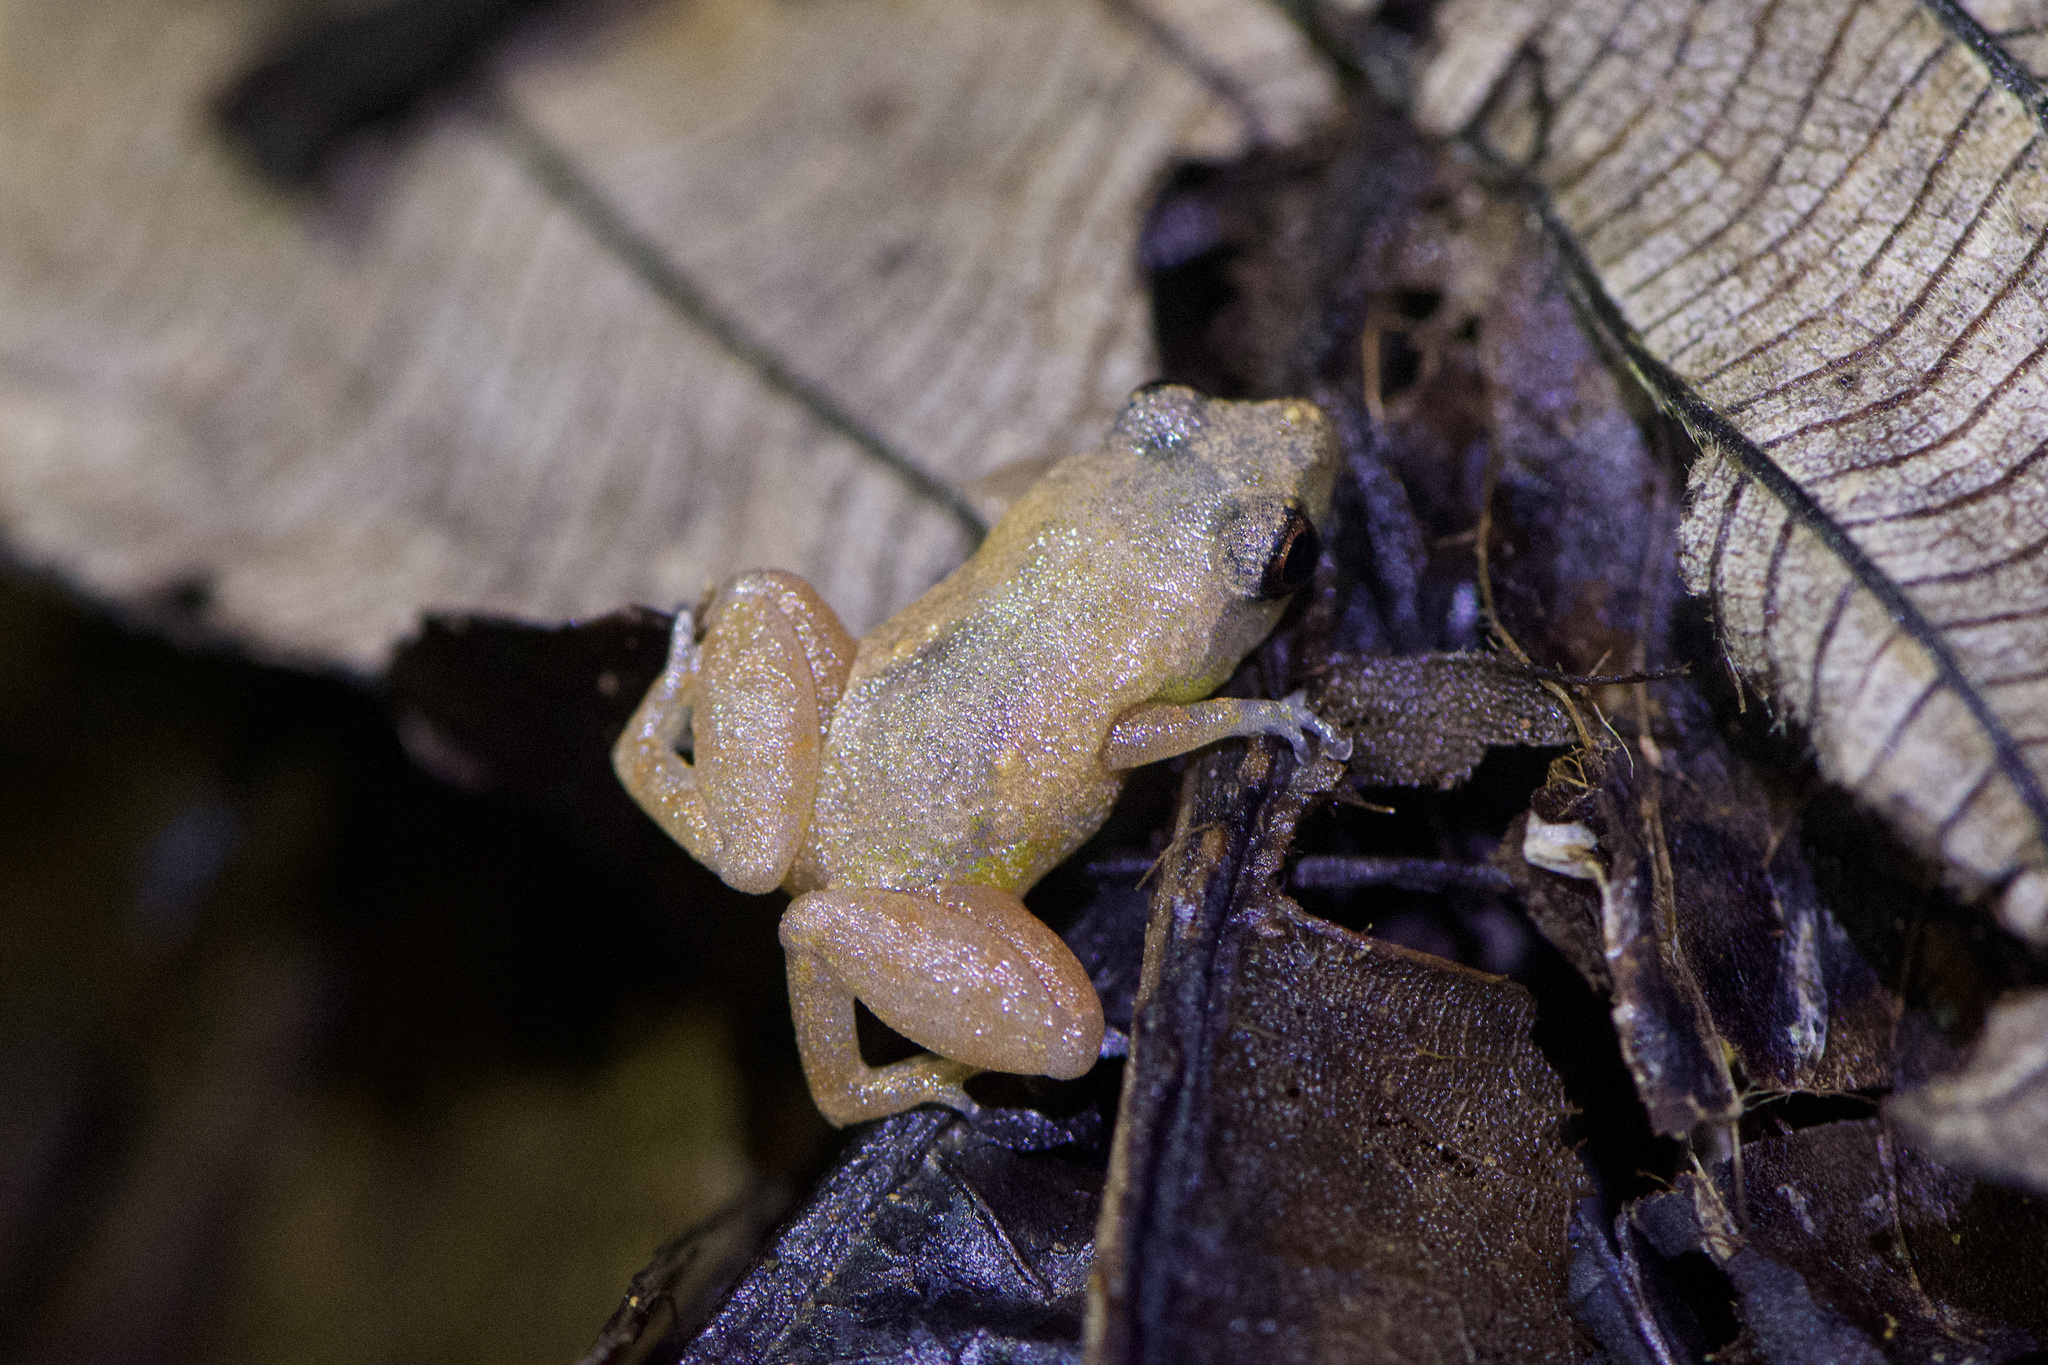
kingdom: Animalia
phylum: Chordata
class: Amphibia
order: Anura
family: Eleutherodactylidae
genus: Diasporus
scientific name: Diasporus diastema
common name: Caretta robber frog
